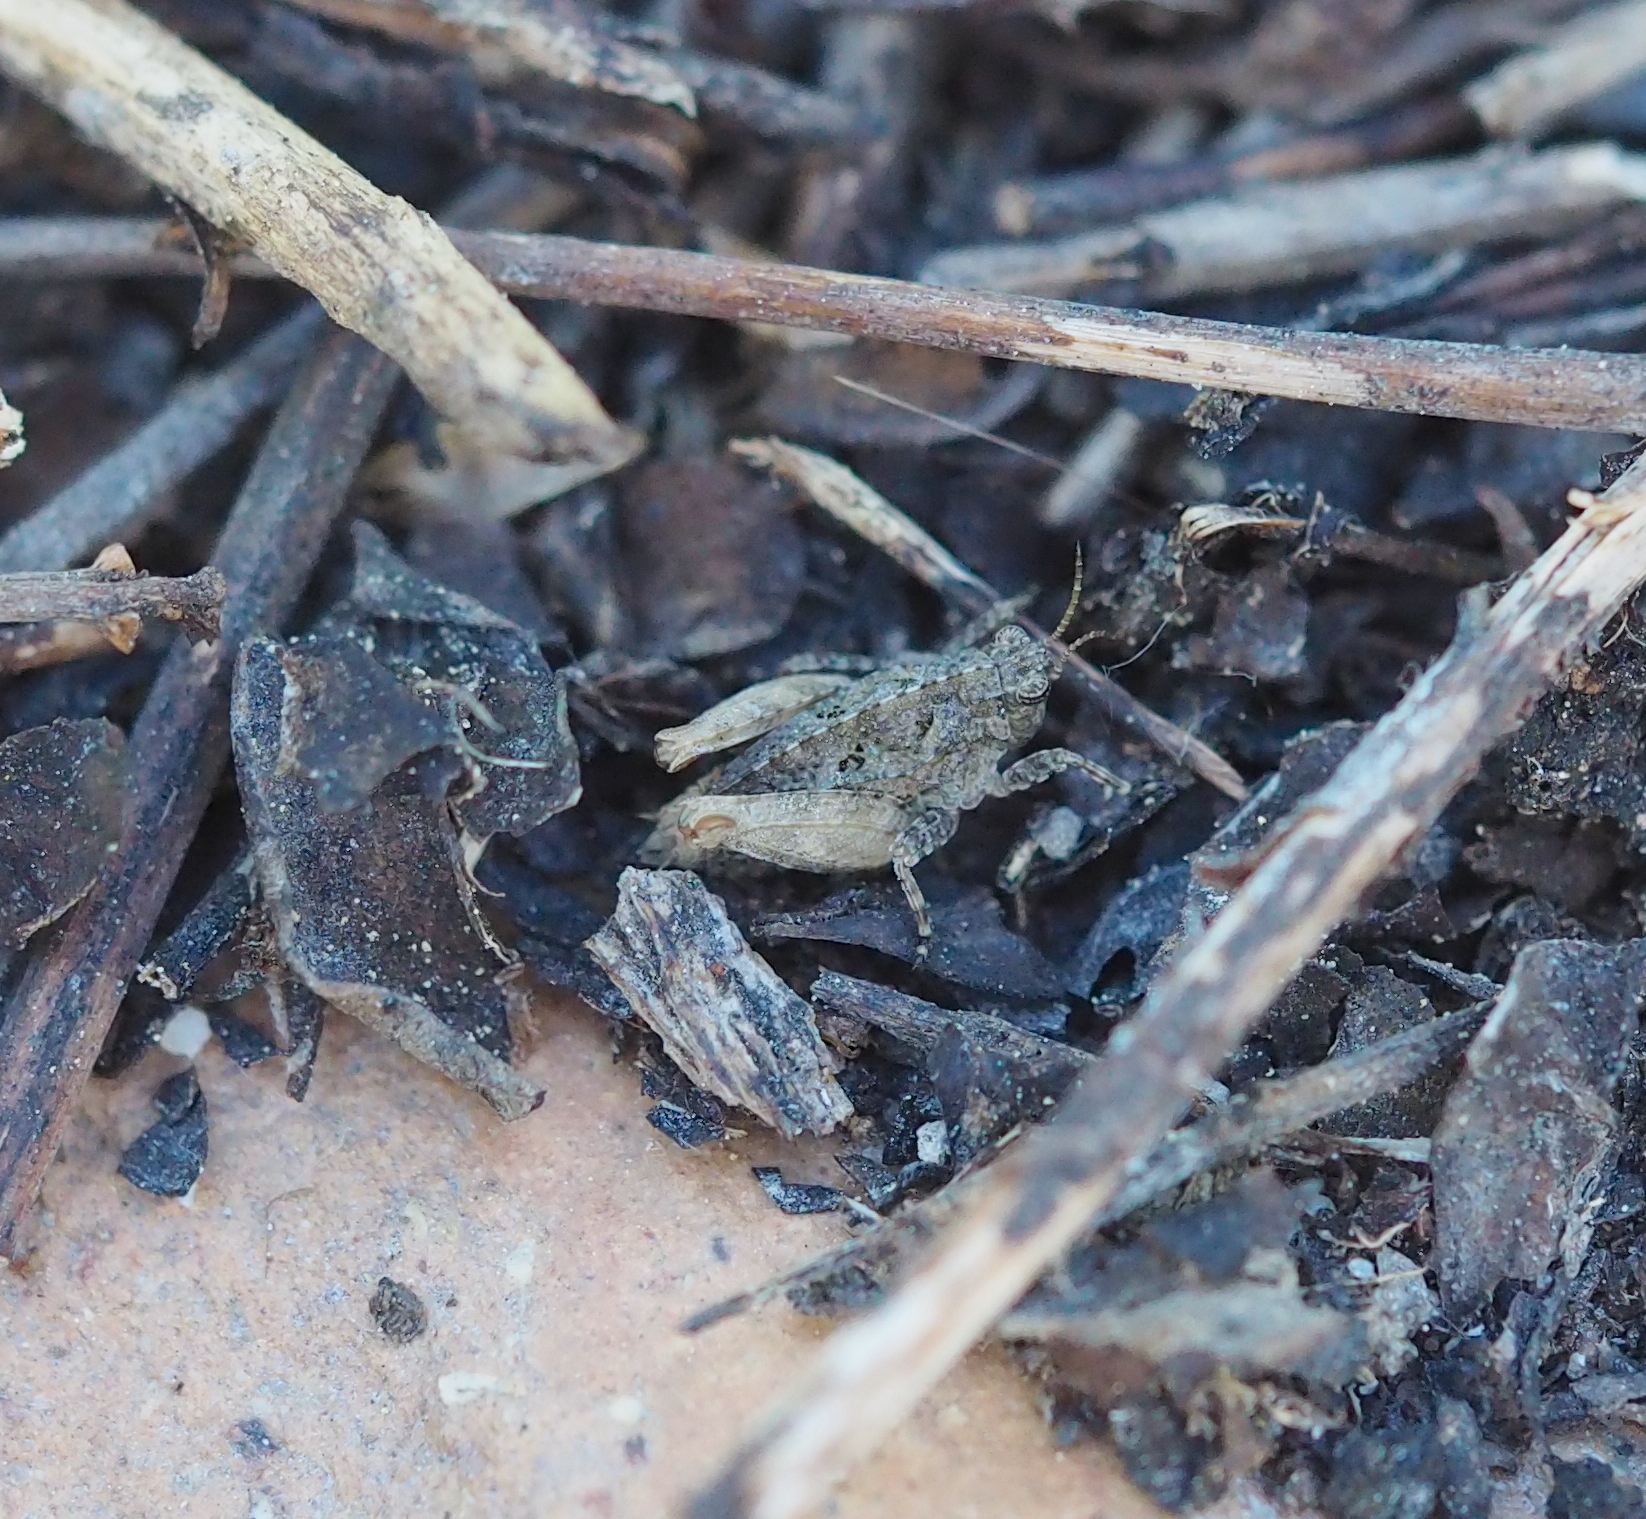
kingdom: Animalia
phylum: Arthropoda
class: Insecta
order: Orthoptera
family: Tetrigidae
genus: Tetrix
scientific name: Tetrix tenuicornis
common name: Long-horned groundhopper
